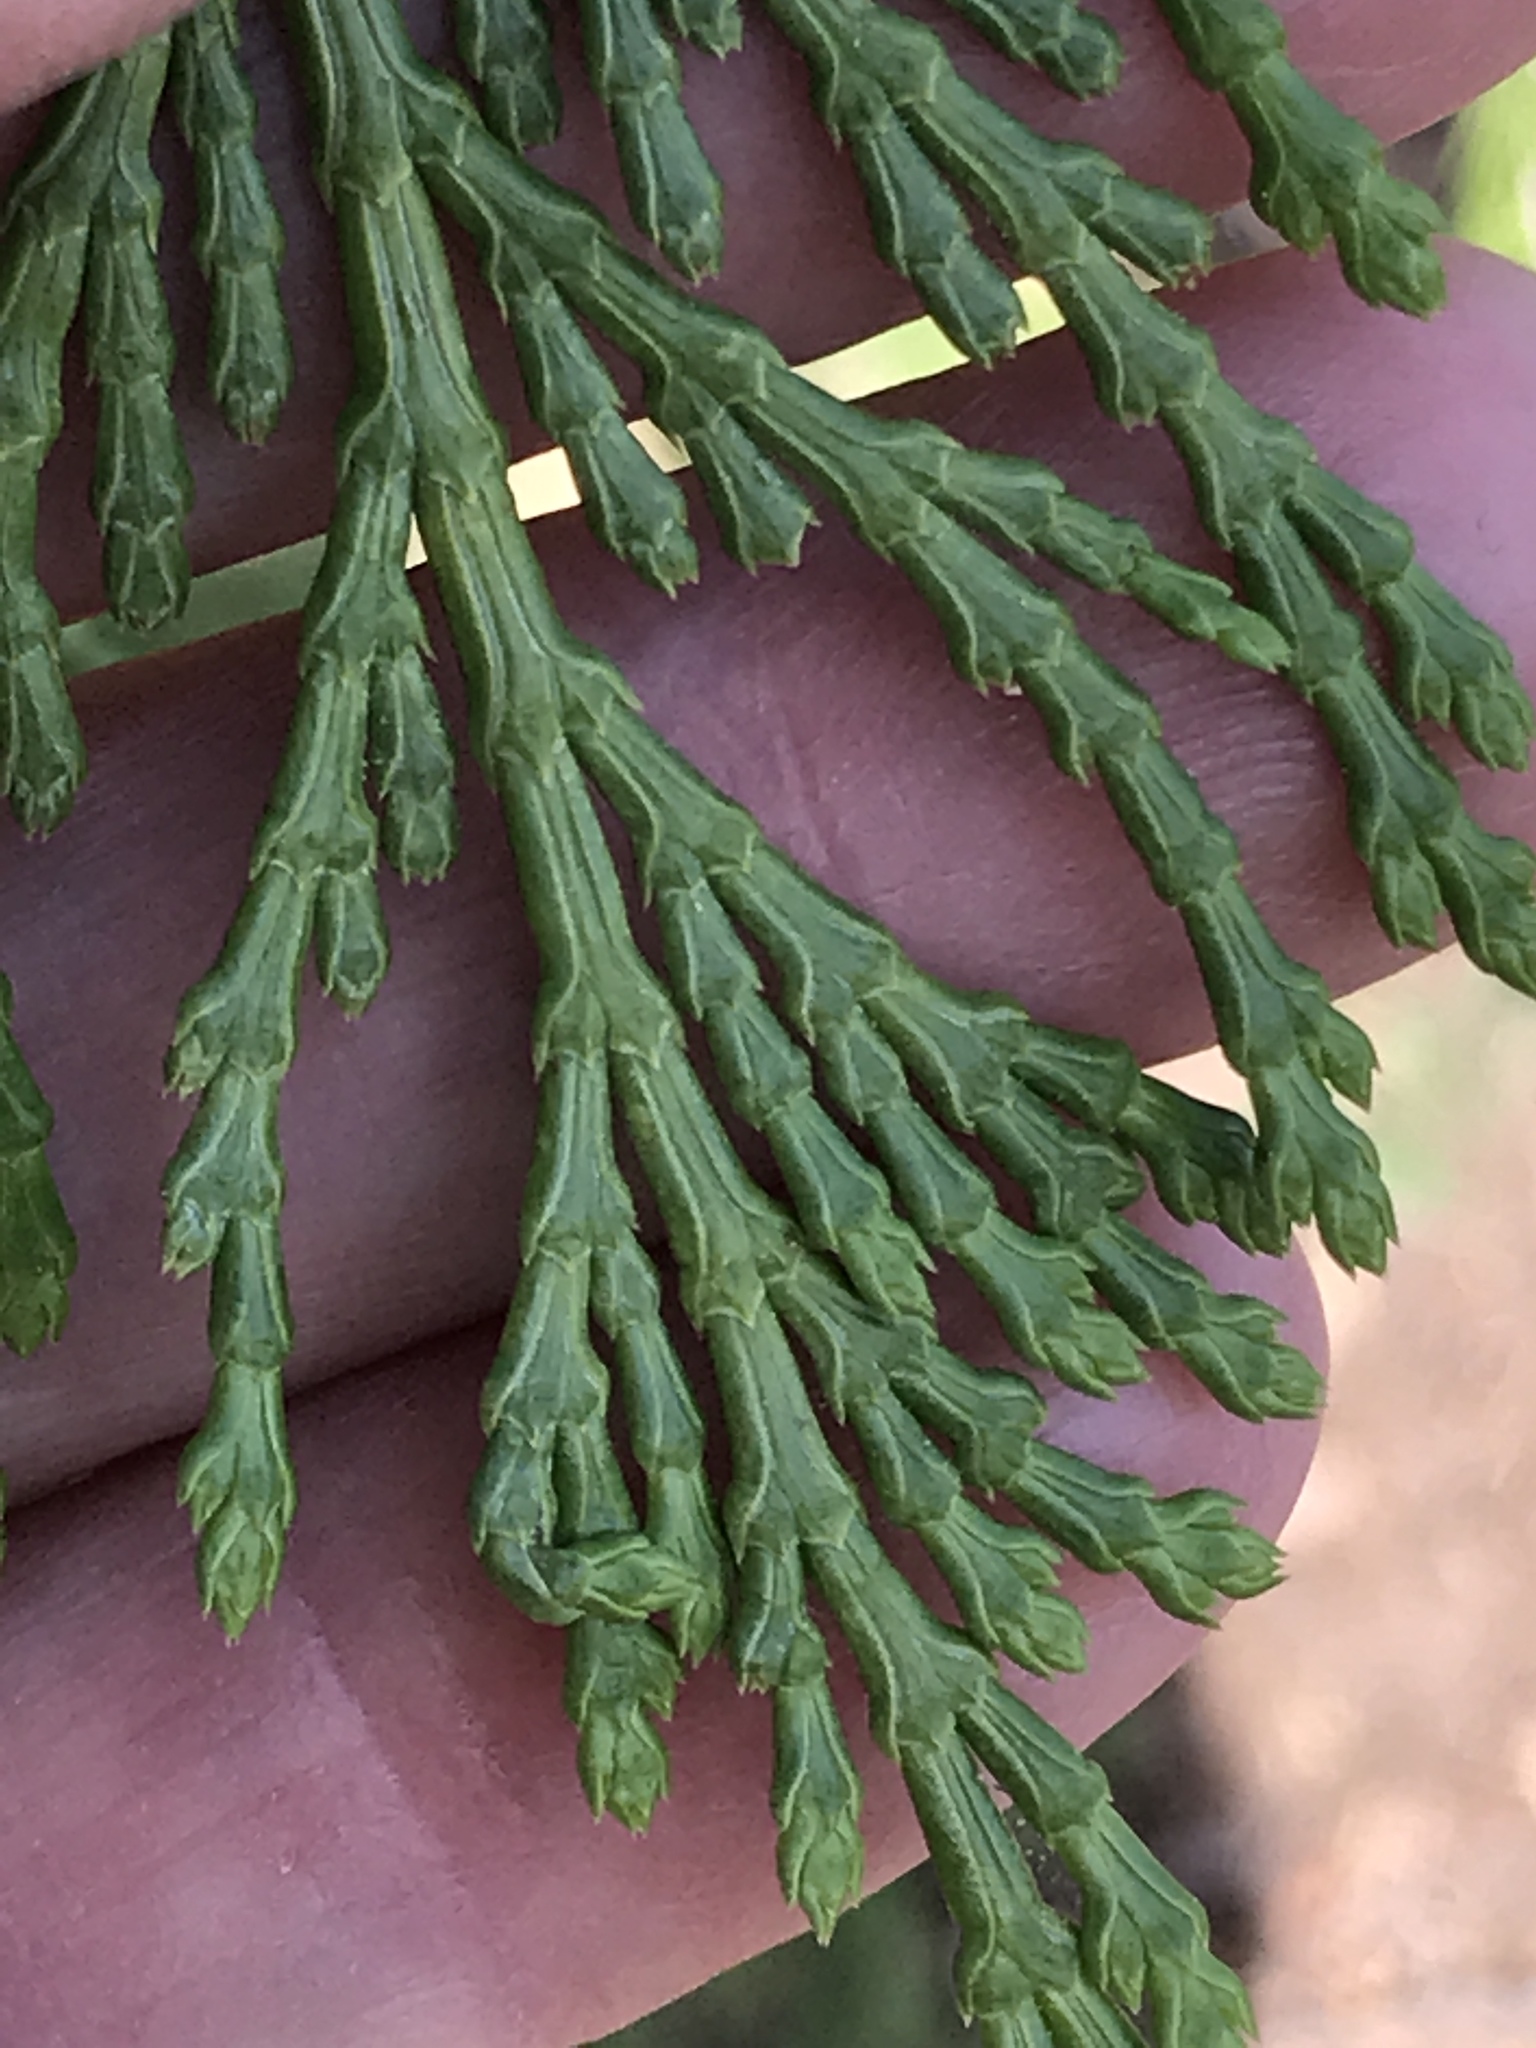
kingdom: Plantae
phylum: Tracheophyta
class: Pinopsida
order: Pinales
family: Cupressaceae
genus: Calocedrus
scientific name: Calocedrus decurrens
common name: Californian incense-cedar
